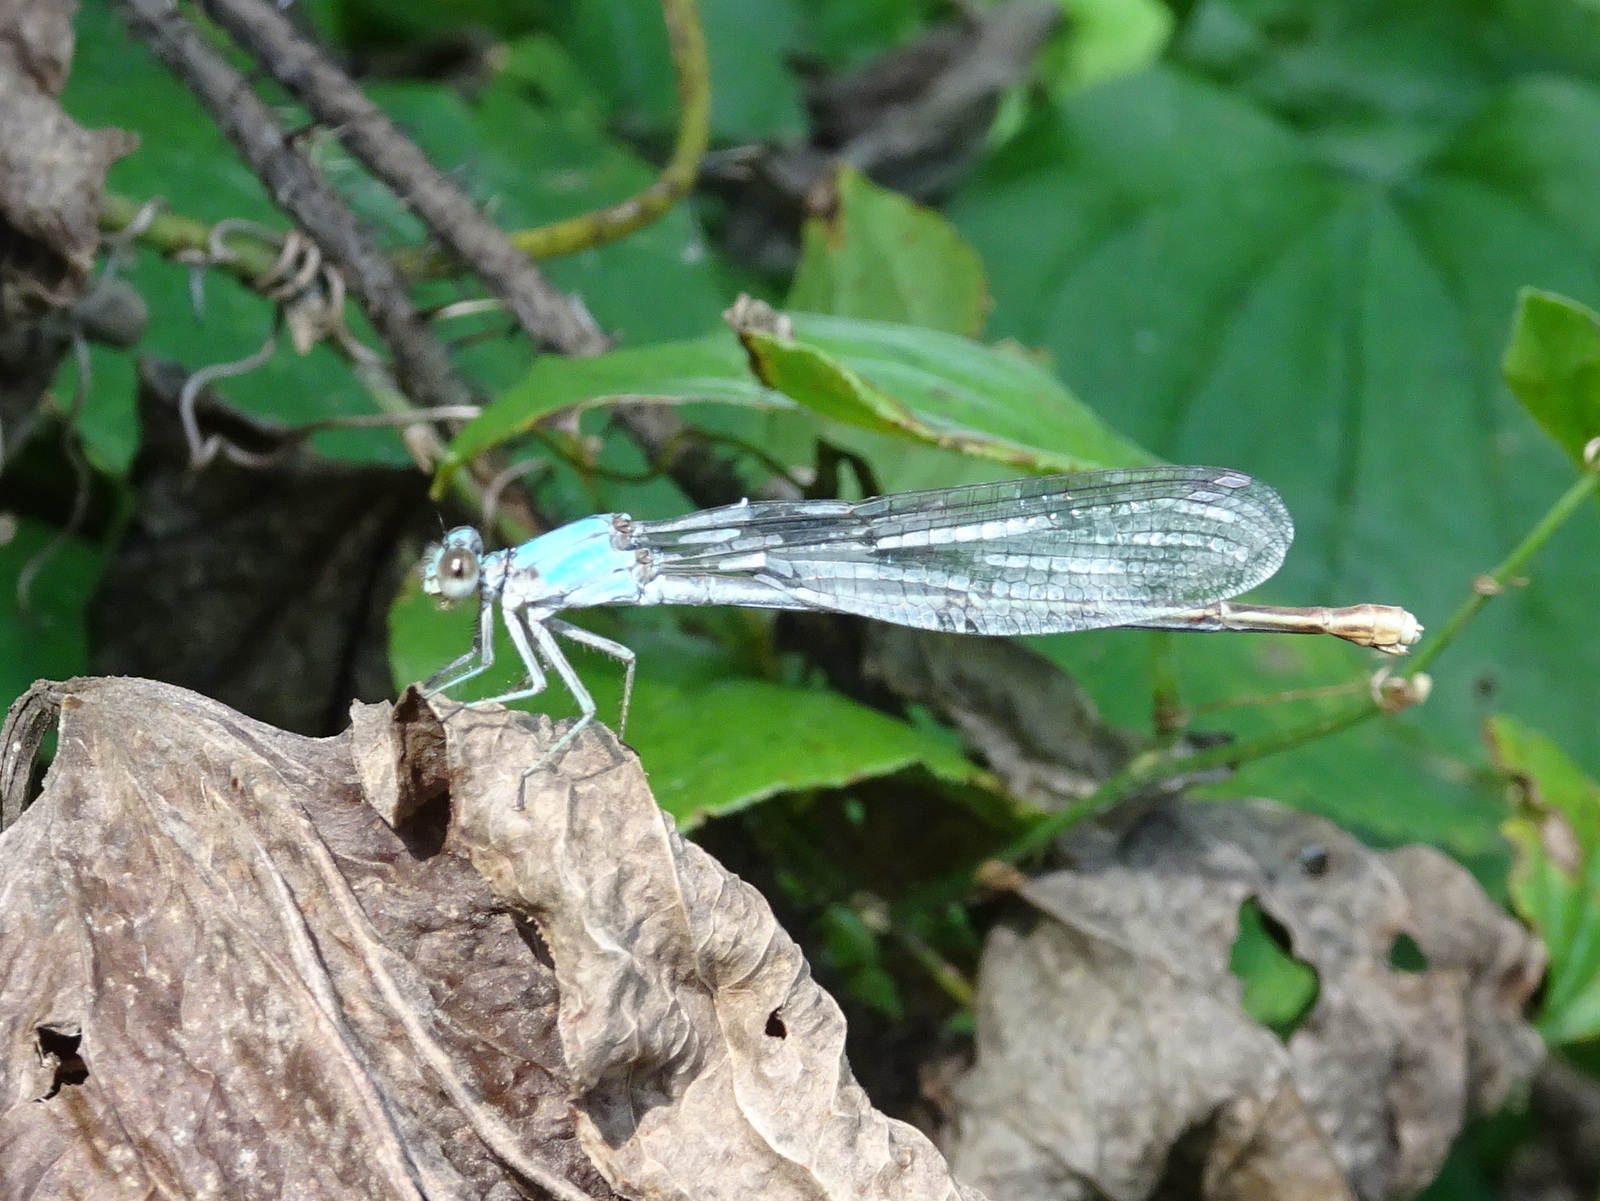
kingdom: Animalia
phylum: Arthropoda
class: Insecta
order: Odonata
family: Coenagrionidae
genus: Argia
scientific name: Argia moesta
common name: Powdered dancer
